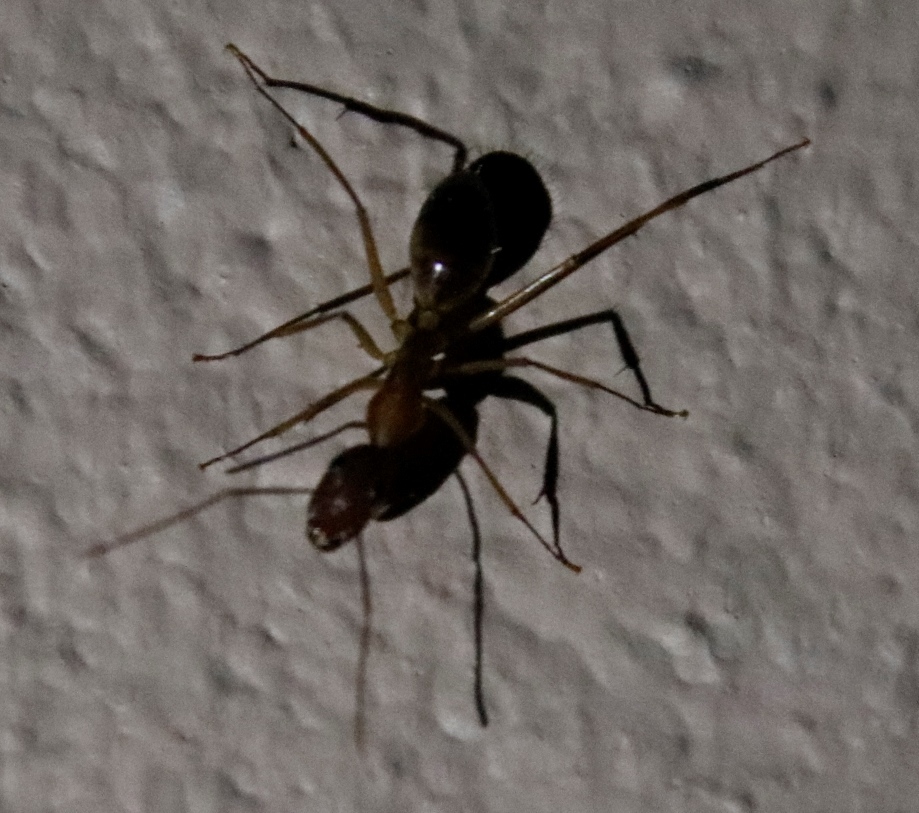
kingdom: Animalia
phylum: Arthropoda
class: Insecta
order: Hymenoptera
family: Formicidae
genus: Camponotus
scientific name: Camponotus maculatus
